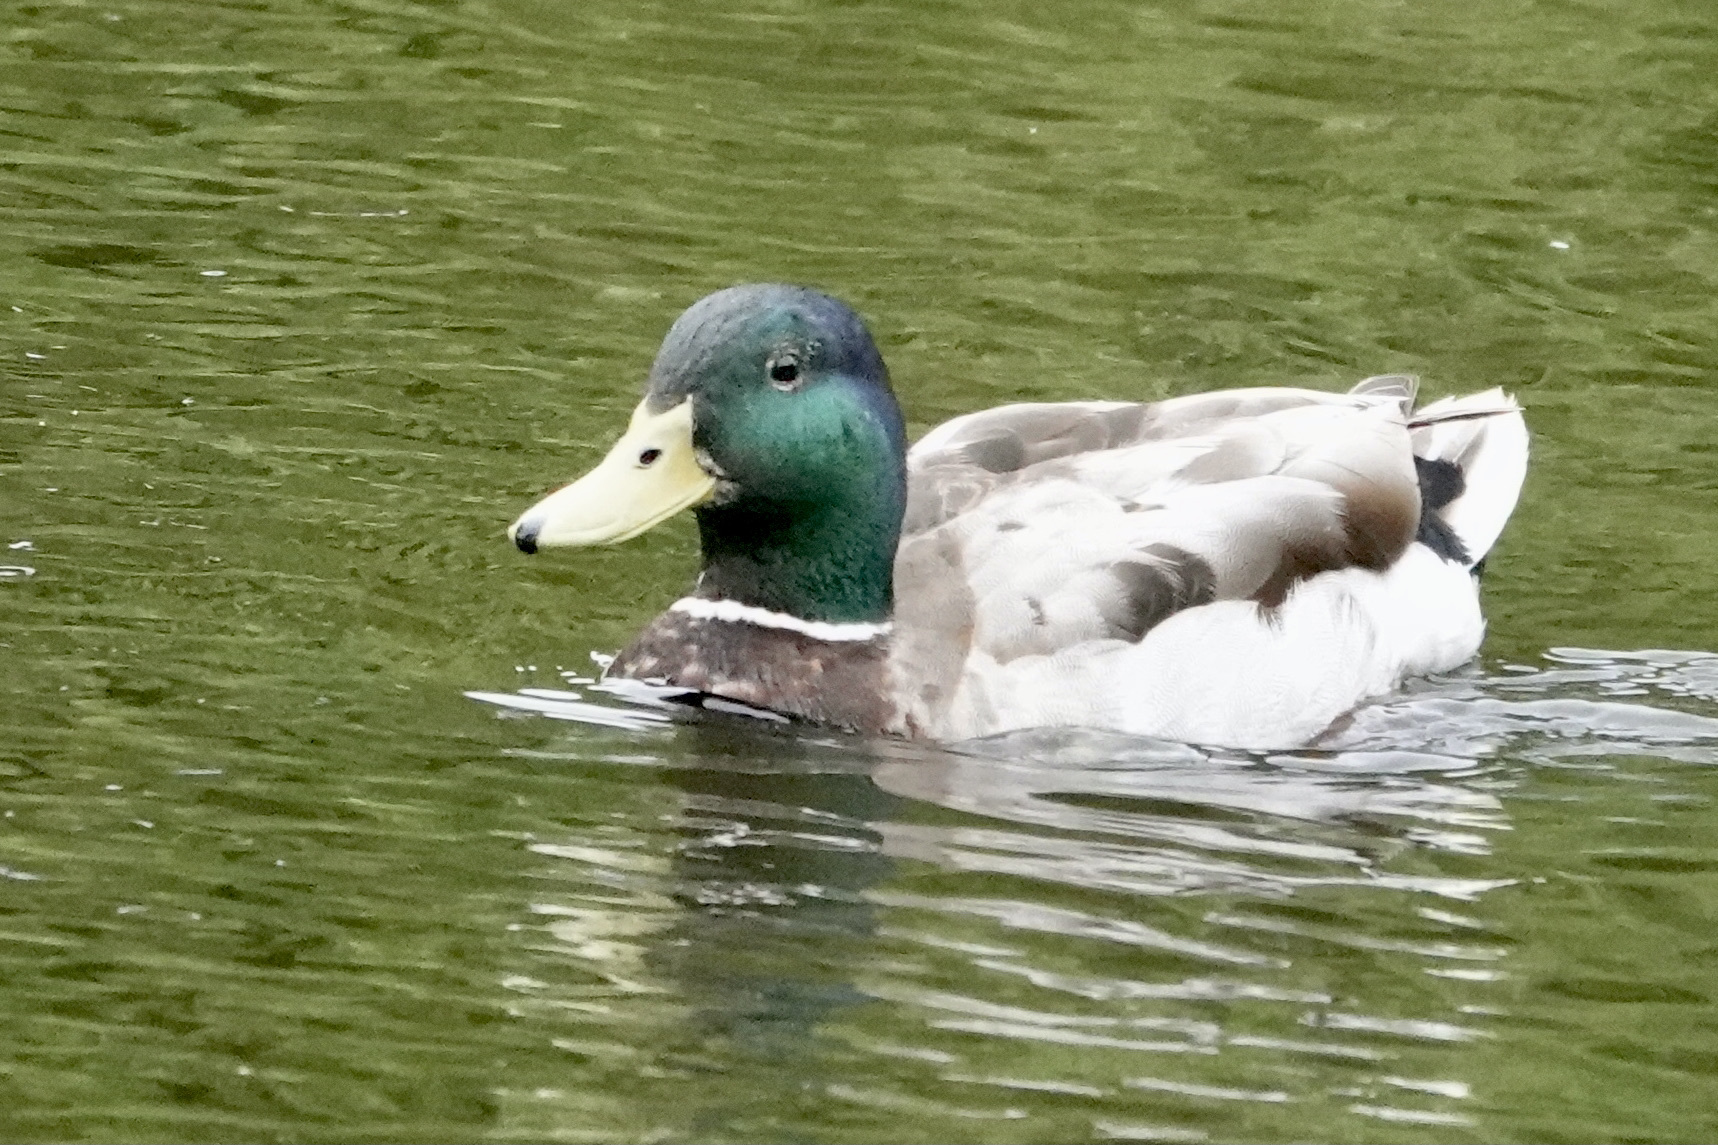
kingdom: Animalia
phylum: Chordata
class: Aves
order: Anseriformes
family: Anatidae
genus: Anas
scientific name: Anas platyrhynchos
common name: Mallard
